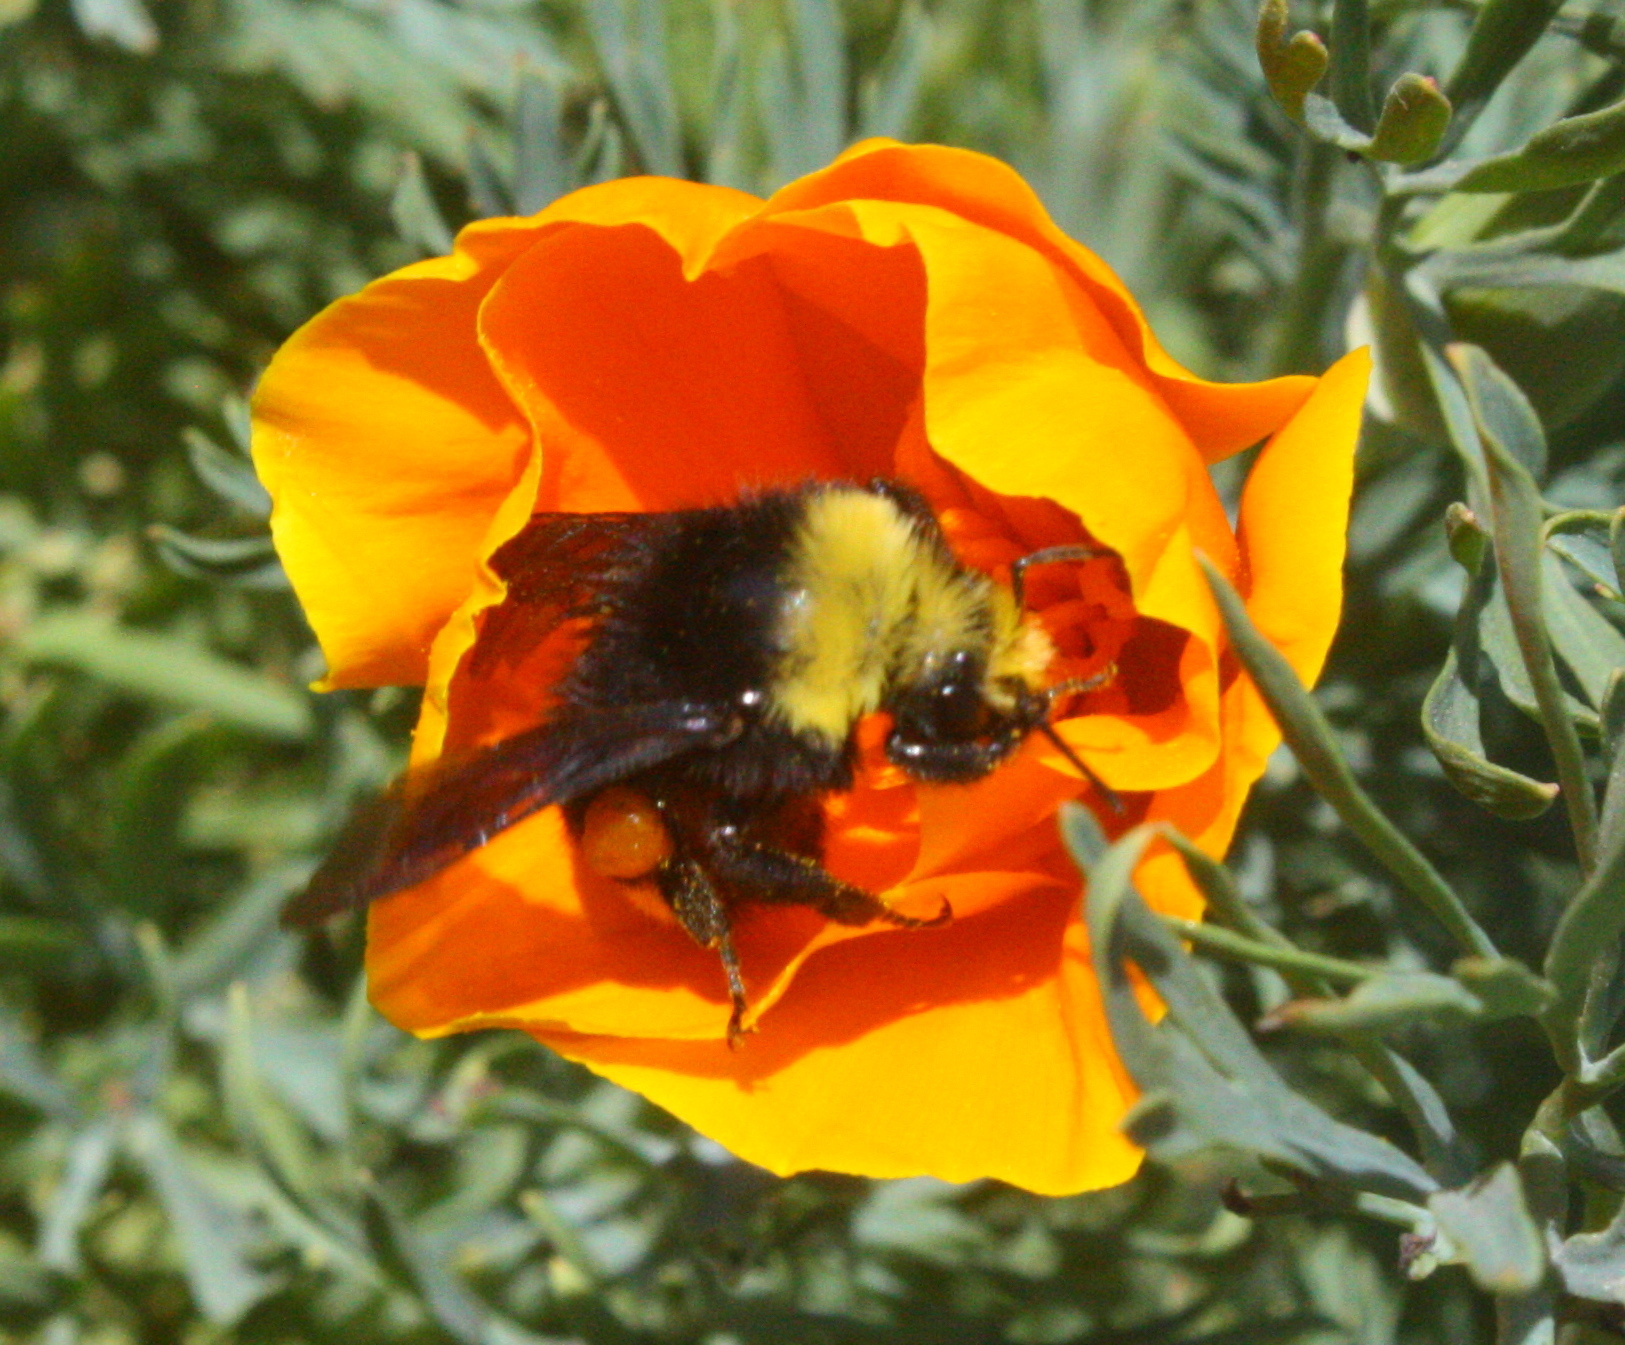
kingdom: Plantae
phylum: Tracheophyta
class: Magnoliopsida
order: Ranunculales
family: Papaveraceae
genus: Eschscholzia
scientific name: Eschscholzia californica
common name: California poppy
